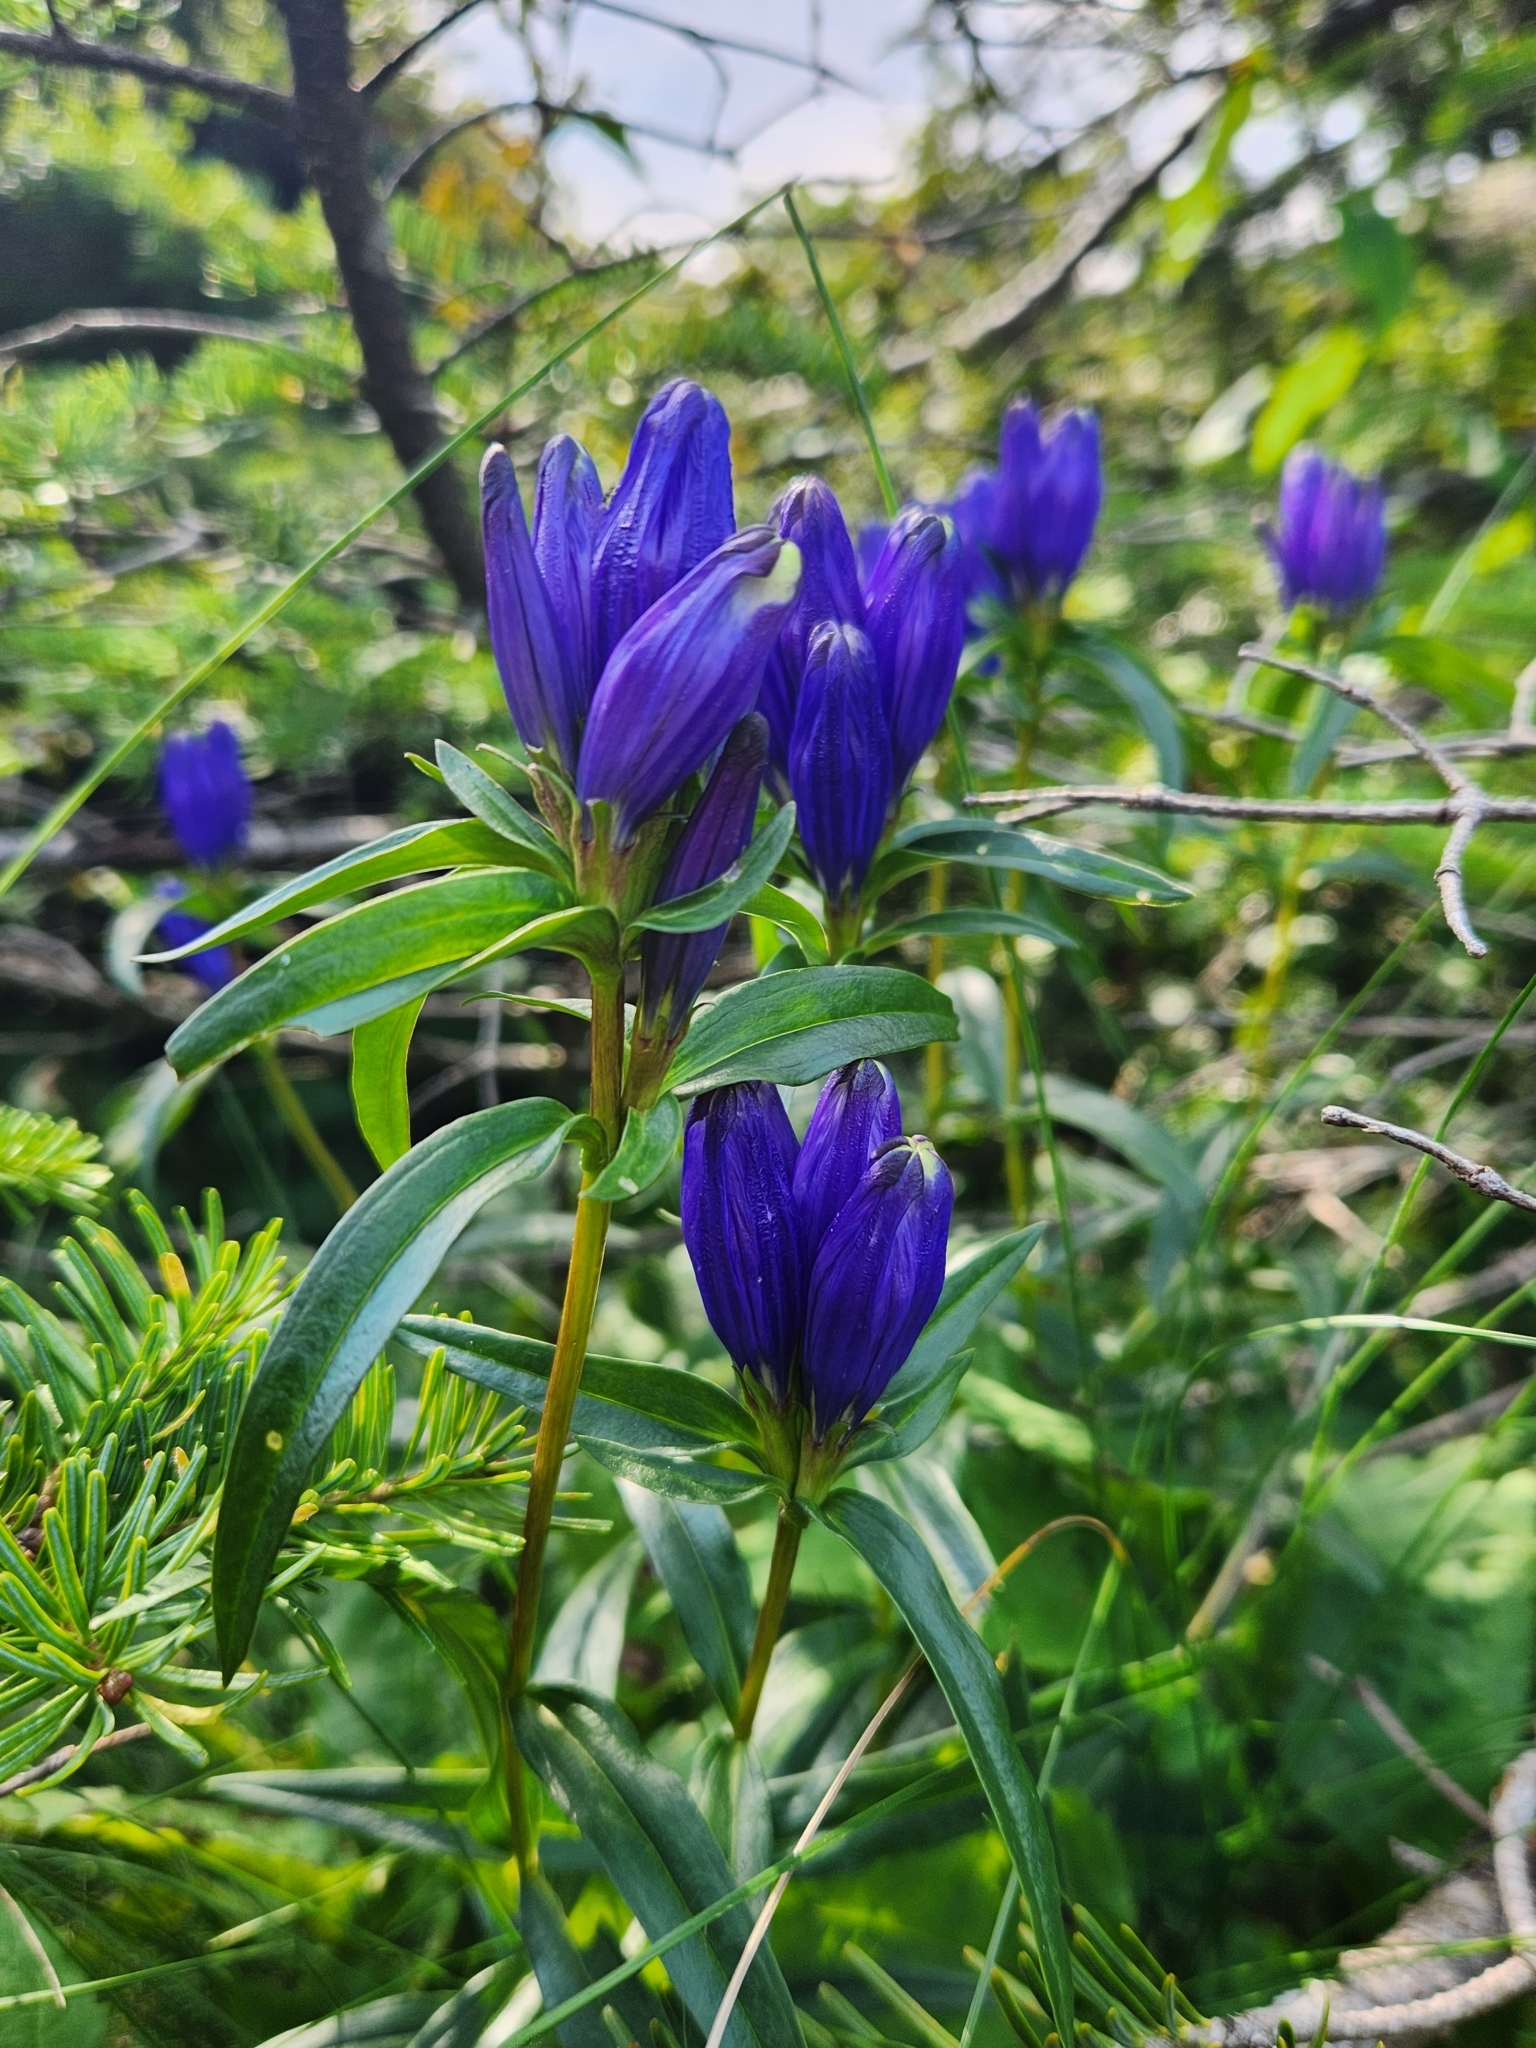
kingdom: Plantae
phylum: Tracheophyta
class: Magnoliopsida
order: Gentianales
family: Gentianaceae
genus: Gentiana
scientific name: Gentiana linearis
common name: Bastard gentian
